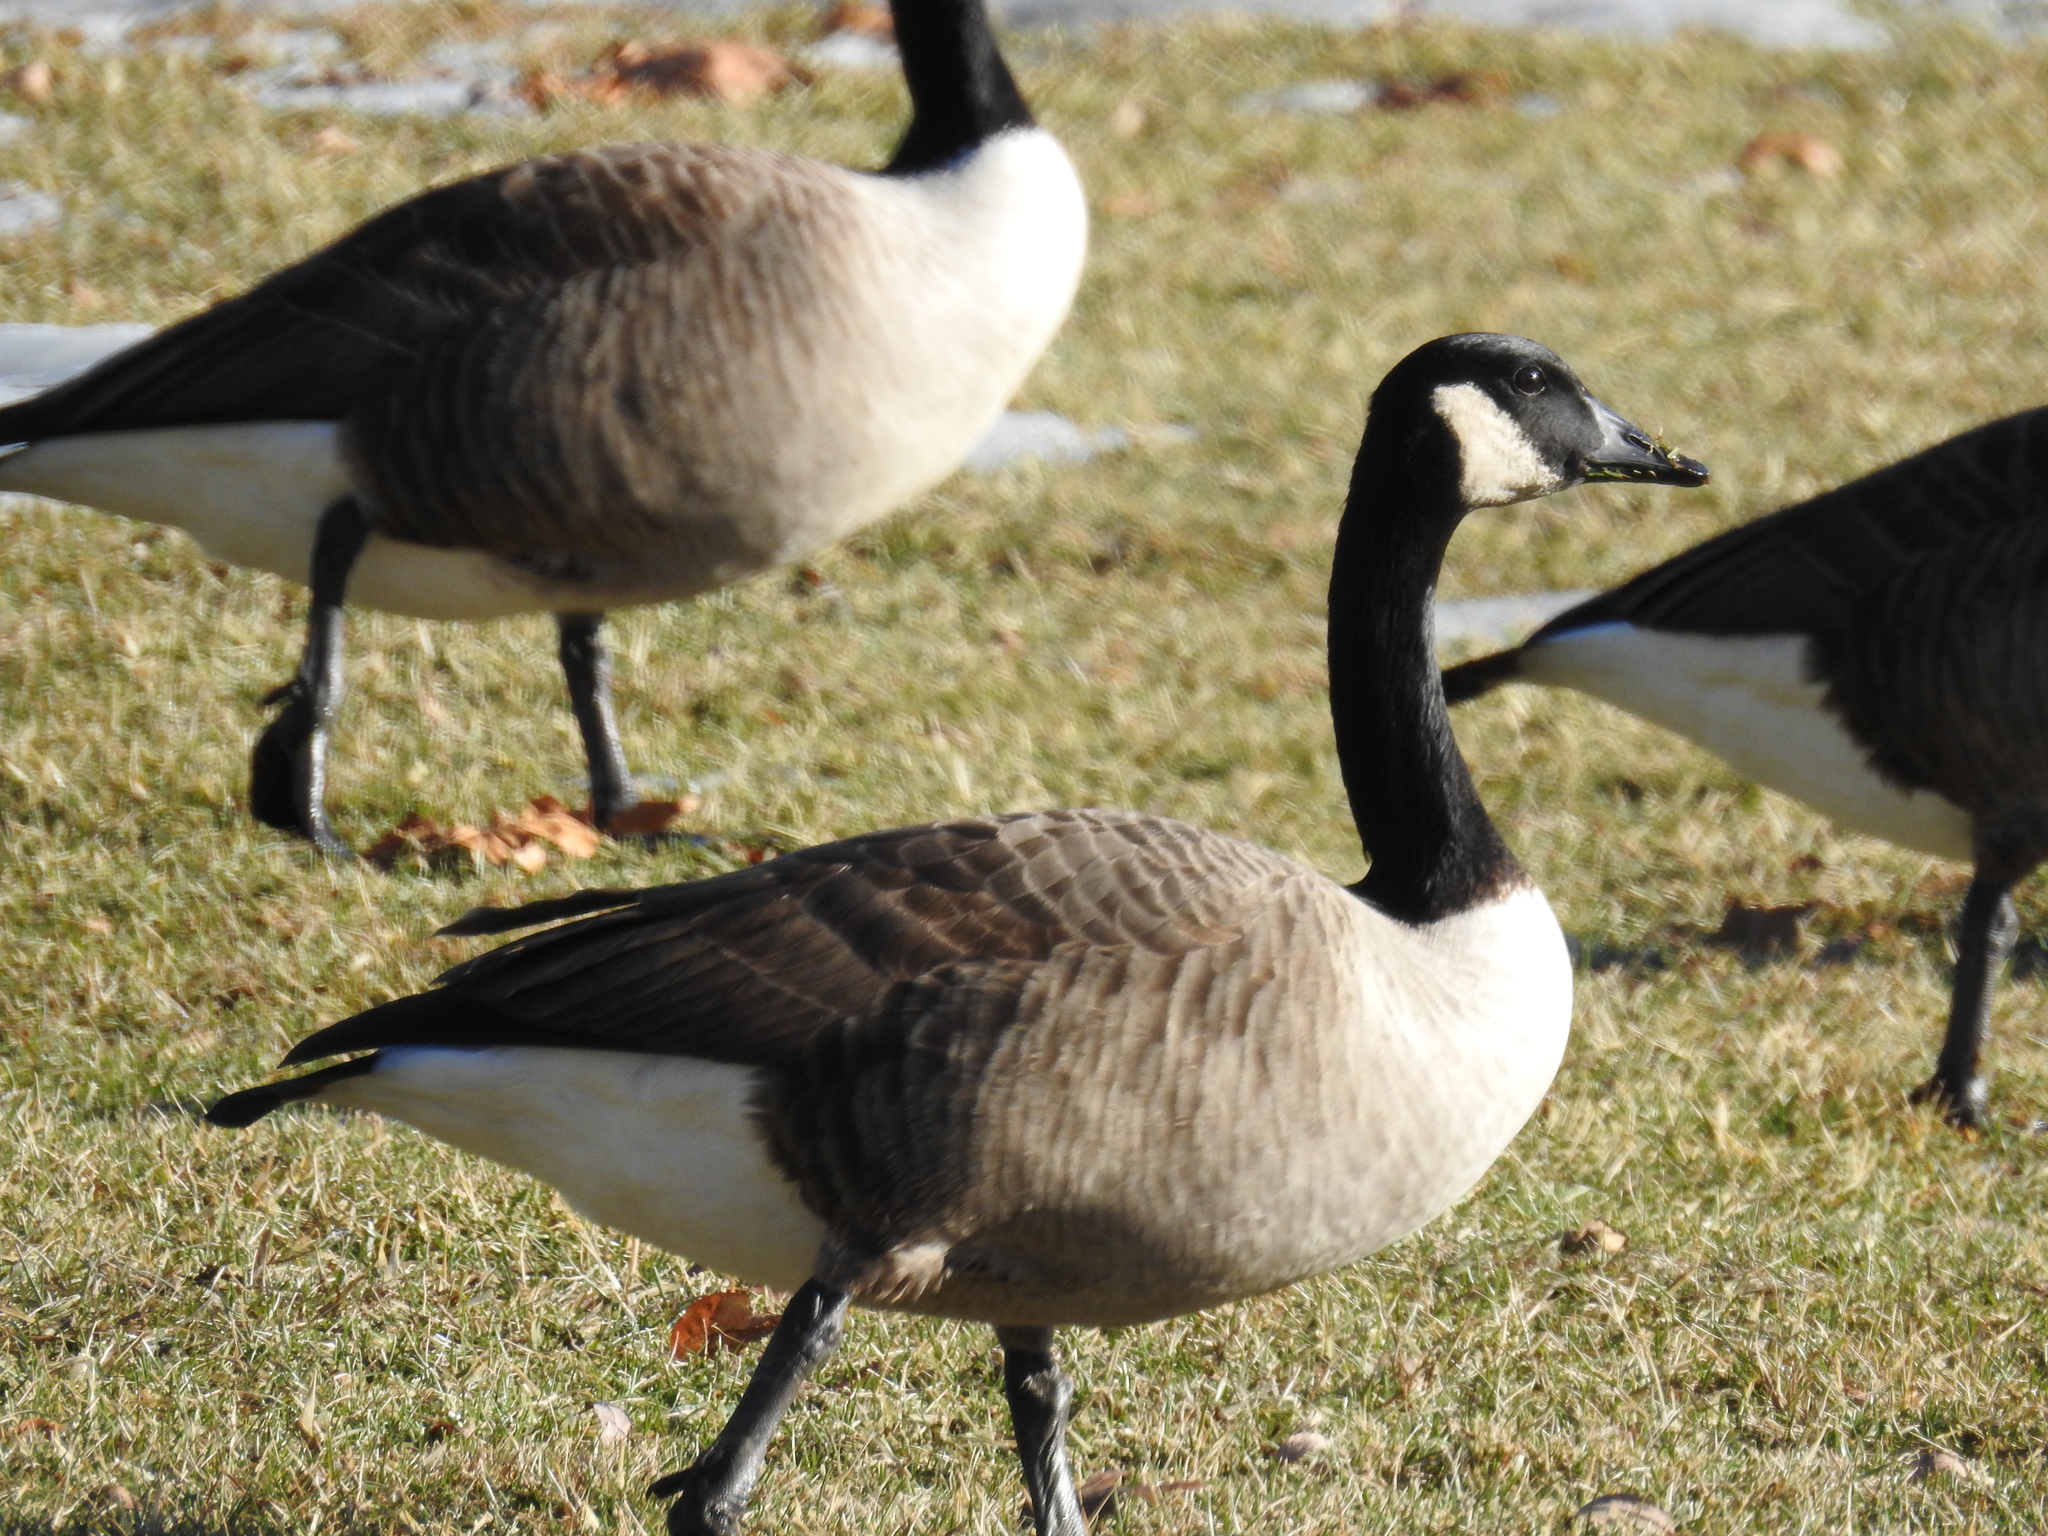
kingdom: Animalia
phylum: Chordata
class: Aves
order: Anseriformes
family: Anatidae
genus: Branta
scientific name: Branta canadensis
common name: Canada goose
